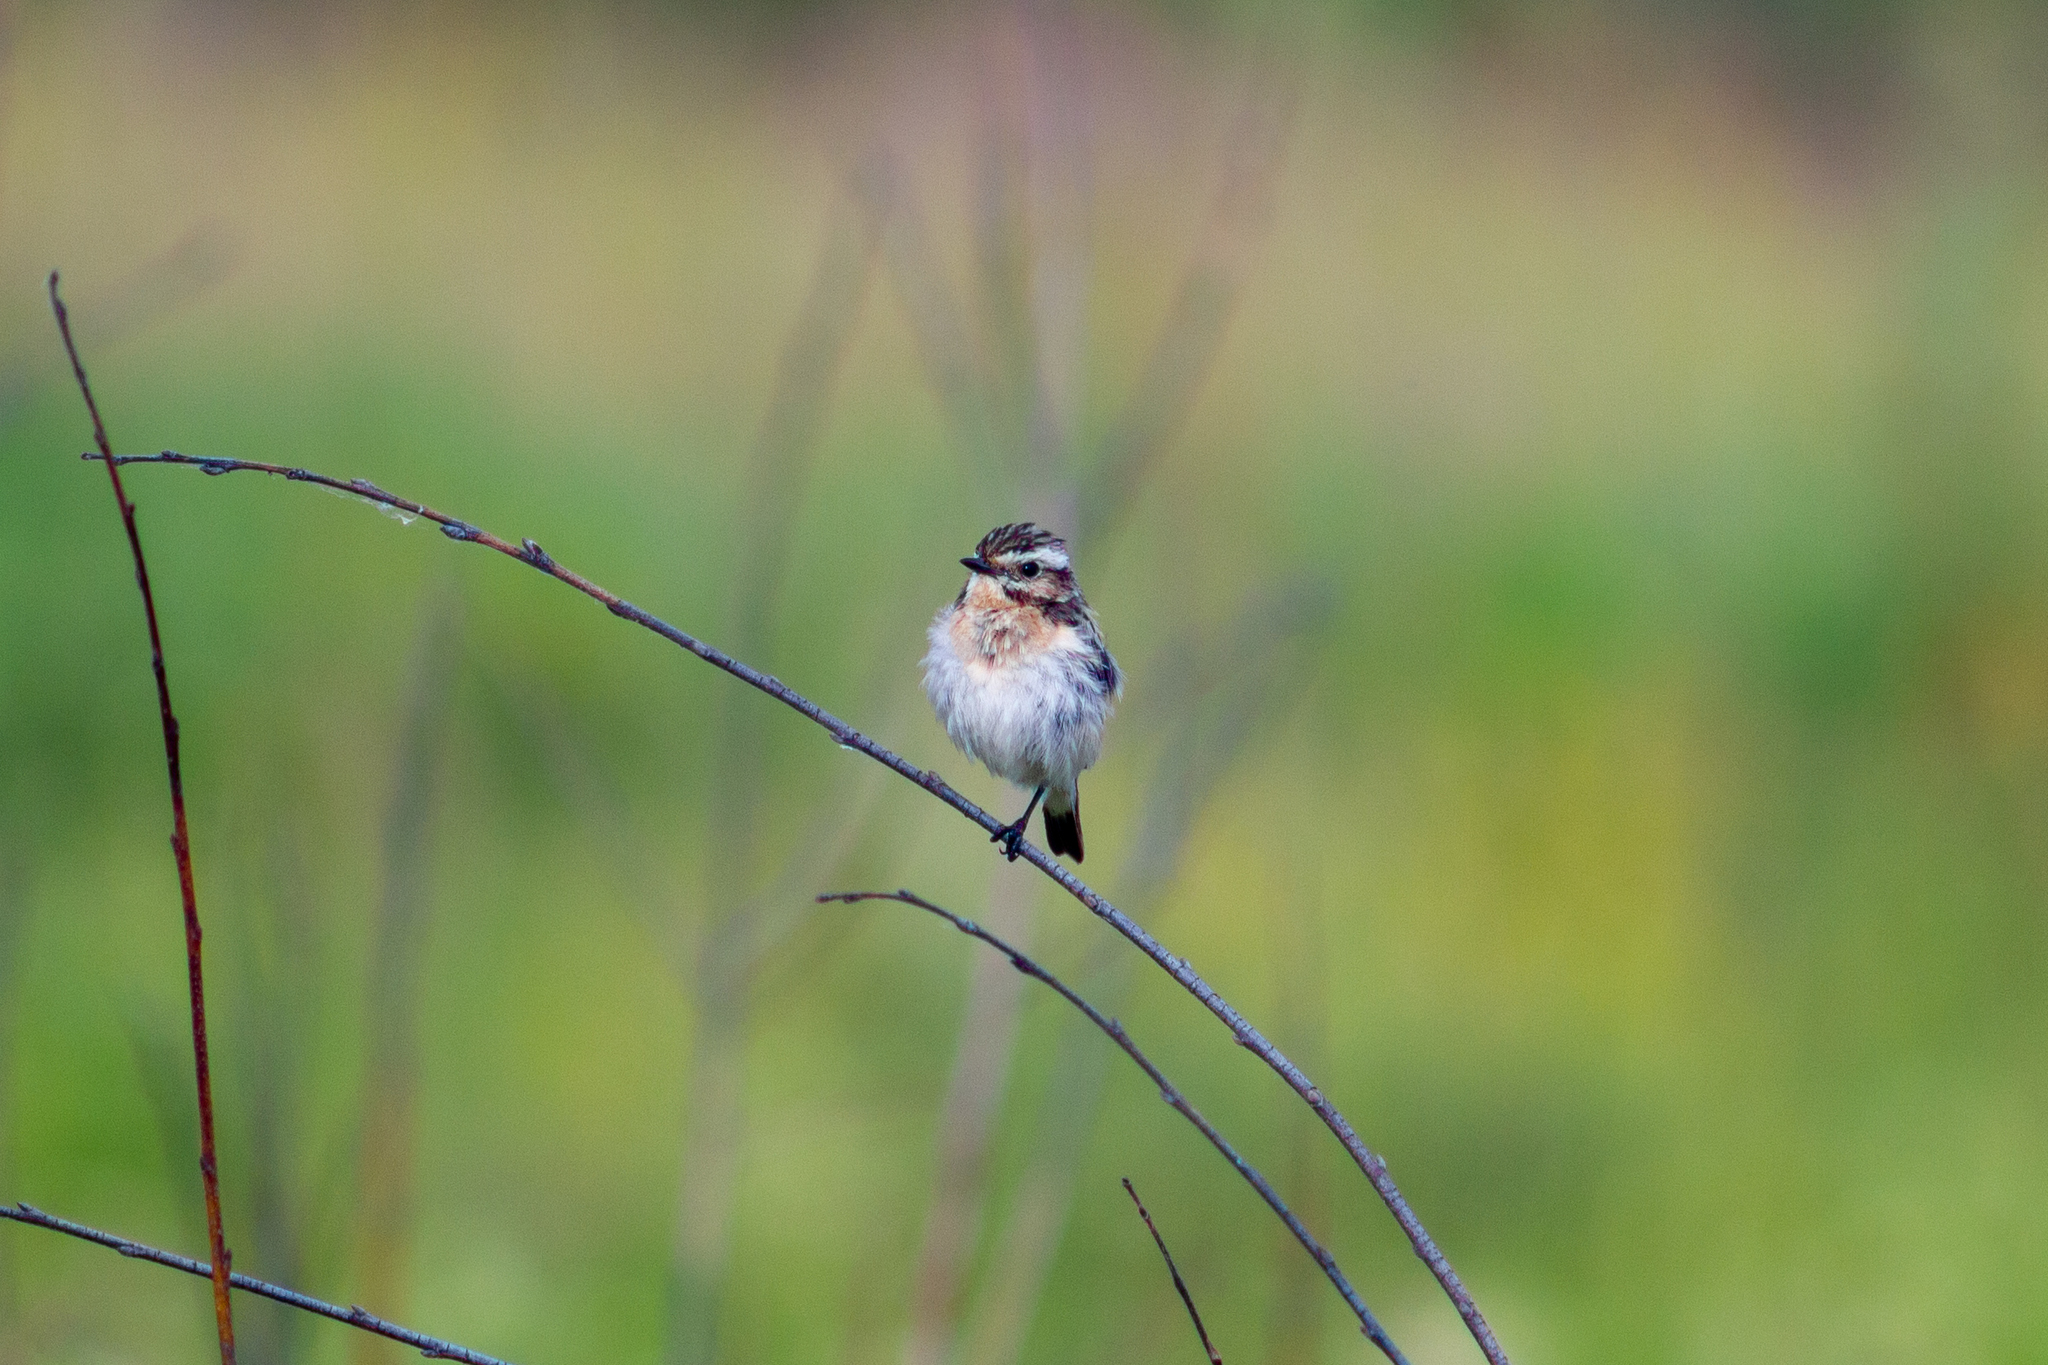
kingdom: Animalia
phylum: Chordata
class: Aves
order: Passeriformes
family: Muscicapidae
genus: Saxicola
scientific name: Saxicola rubetra
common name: Whinchat
